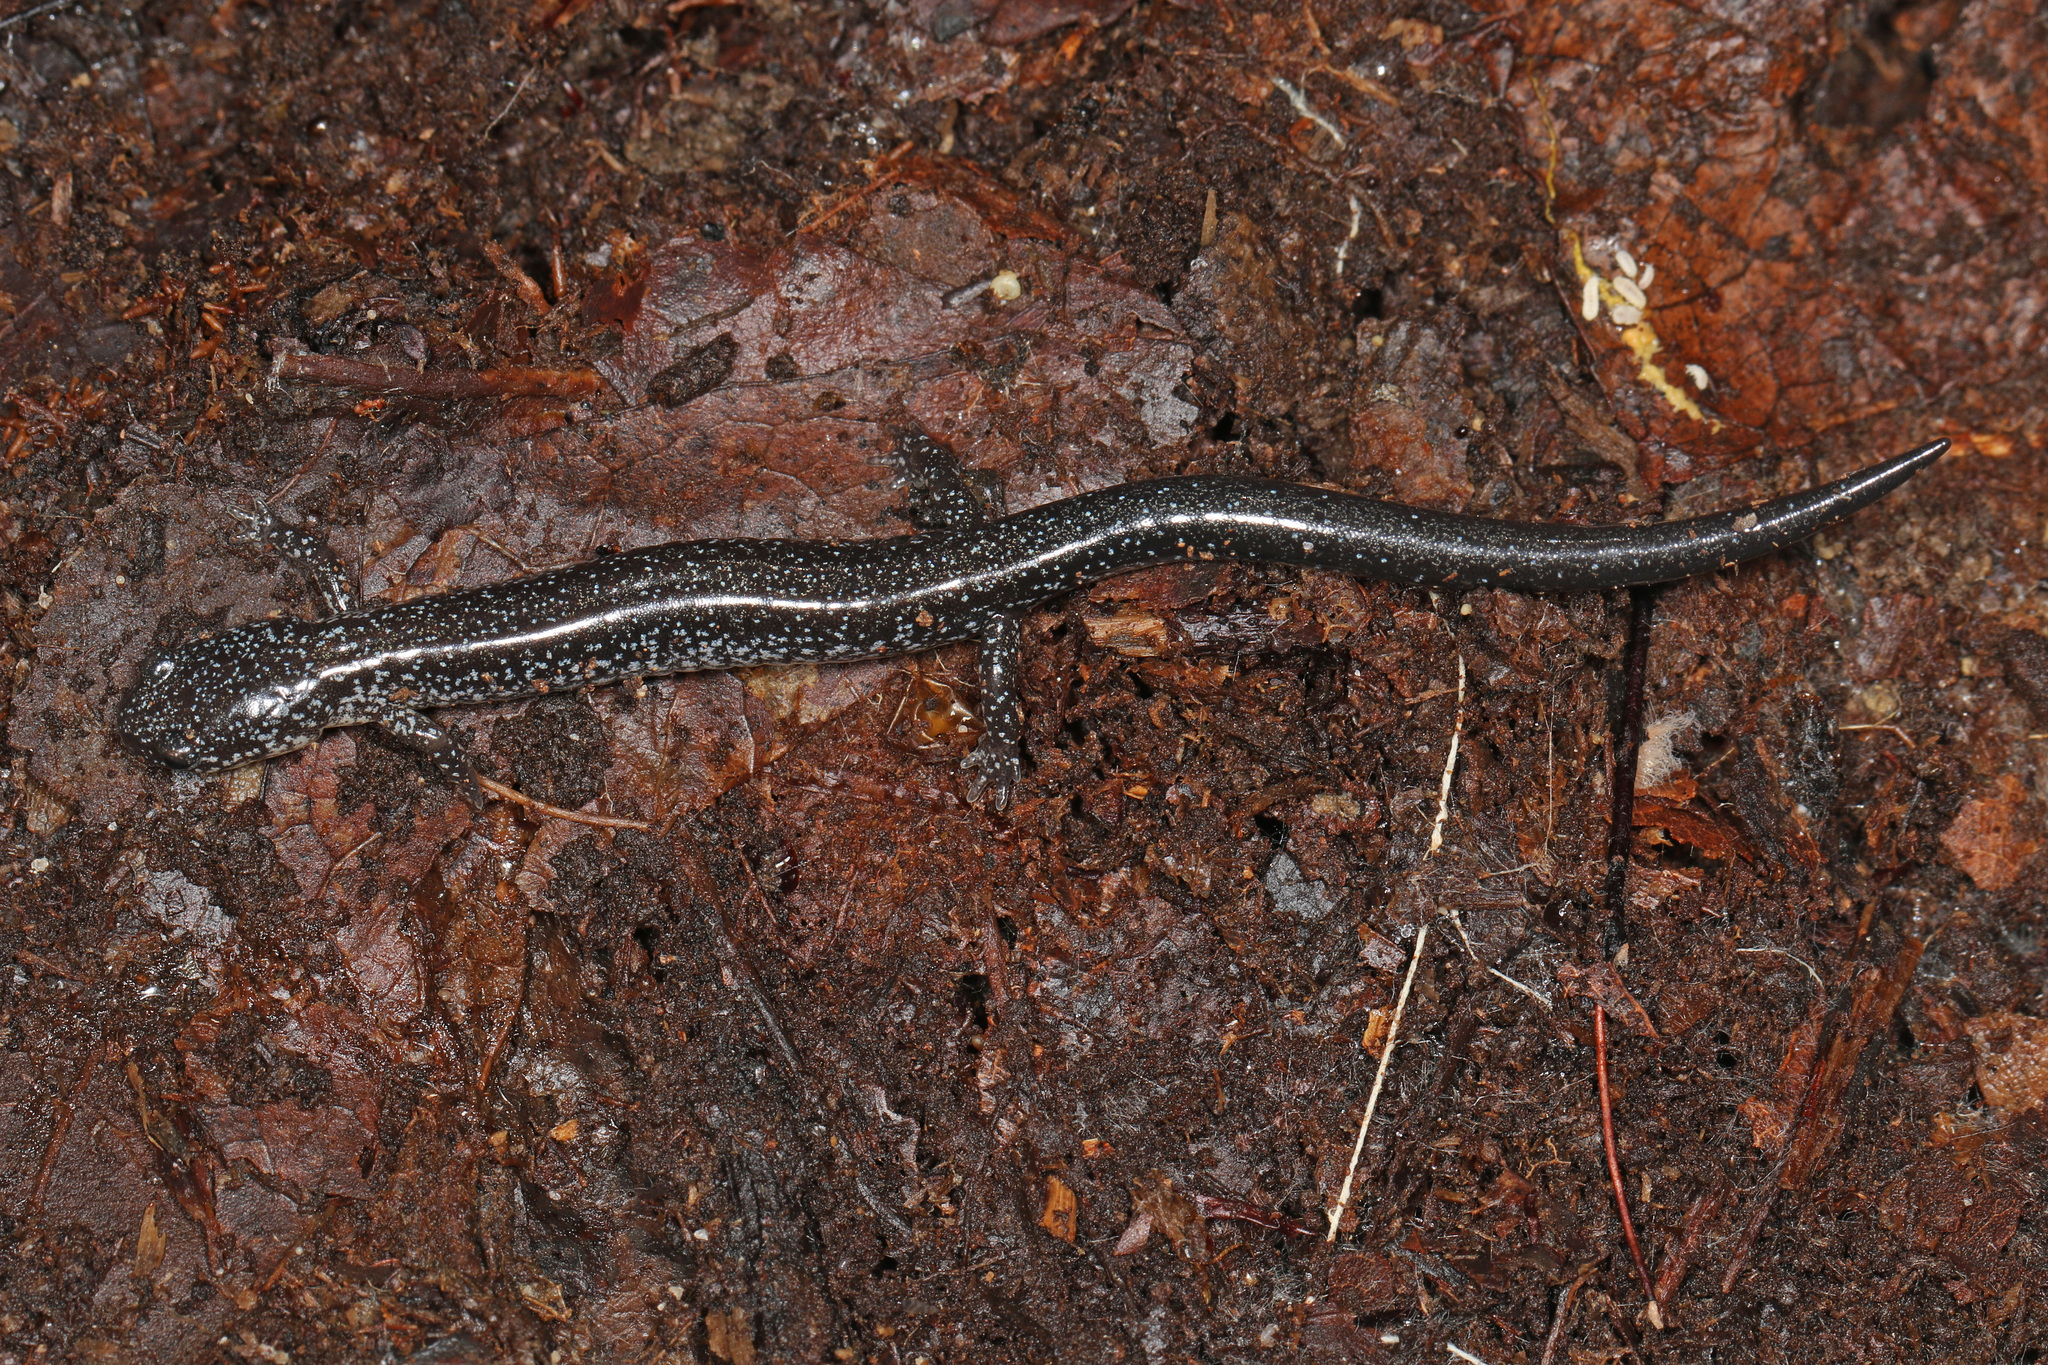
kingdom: Animalia
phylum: Chordata
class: Amphibia
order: Caudata
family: Plethodontidae
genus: Plethodon
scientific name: Plethodon cinereus
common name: Redback salamander
